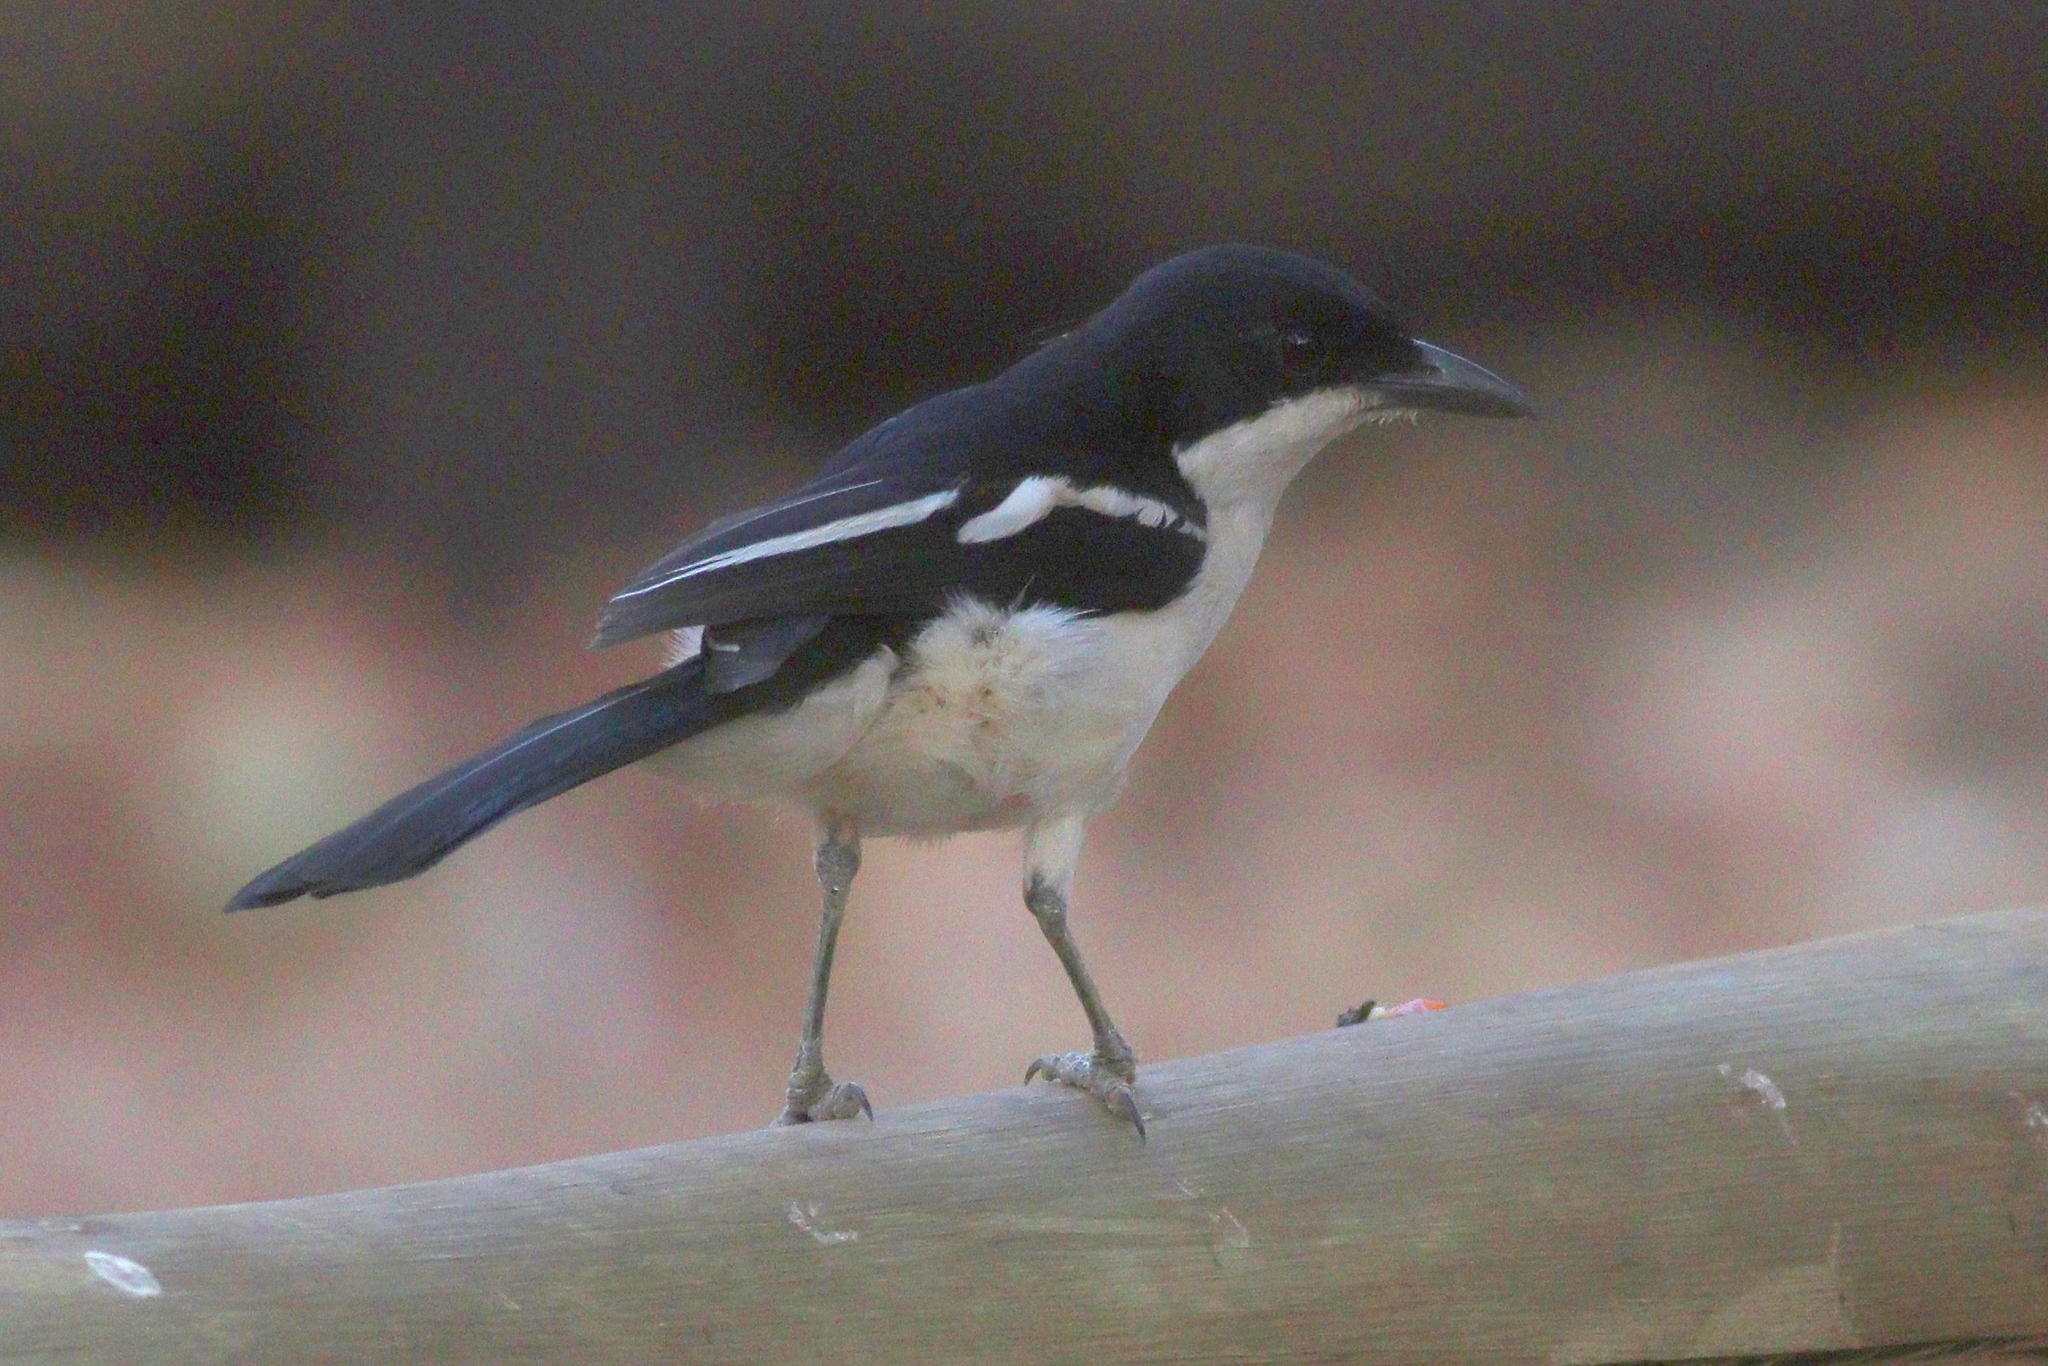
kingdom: Animalia
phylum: Chordata
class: Aves
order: Passeriformes
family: Malaconotidae
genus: Laniarius
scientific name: Laniarius bicolor
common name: Swamp boubou
